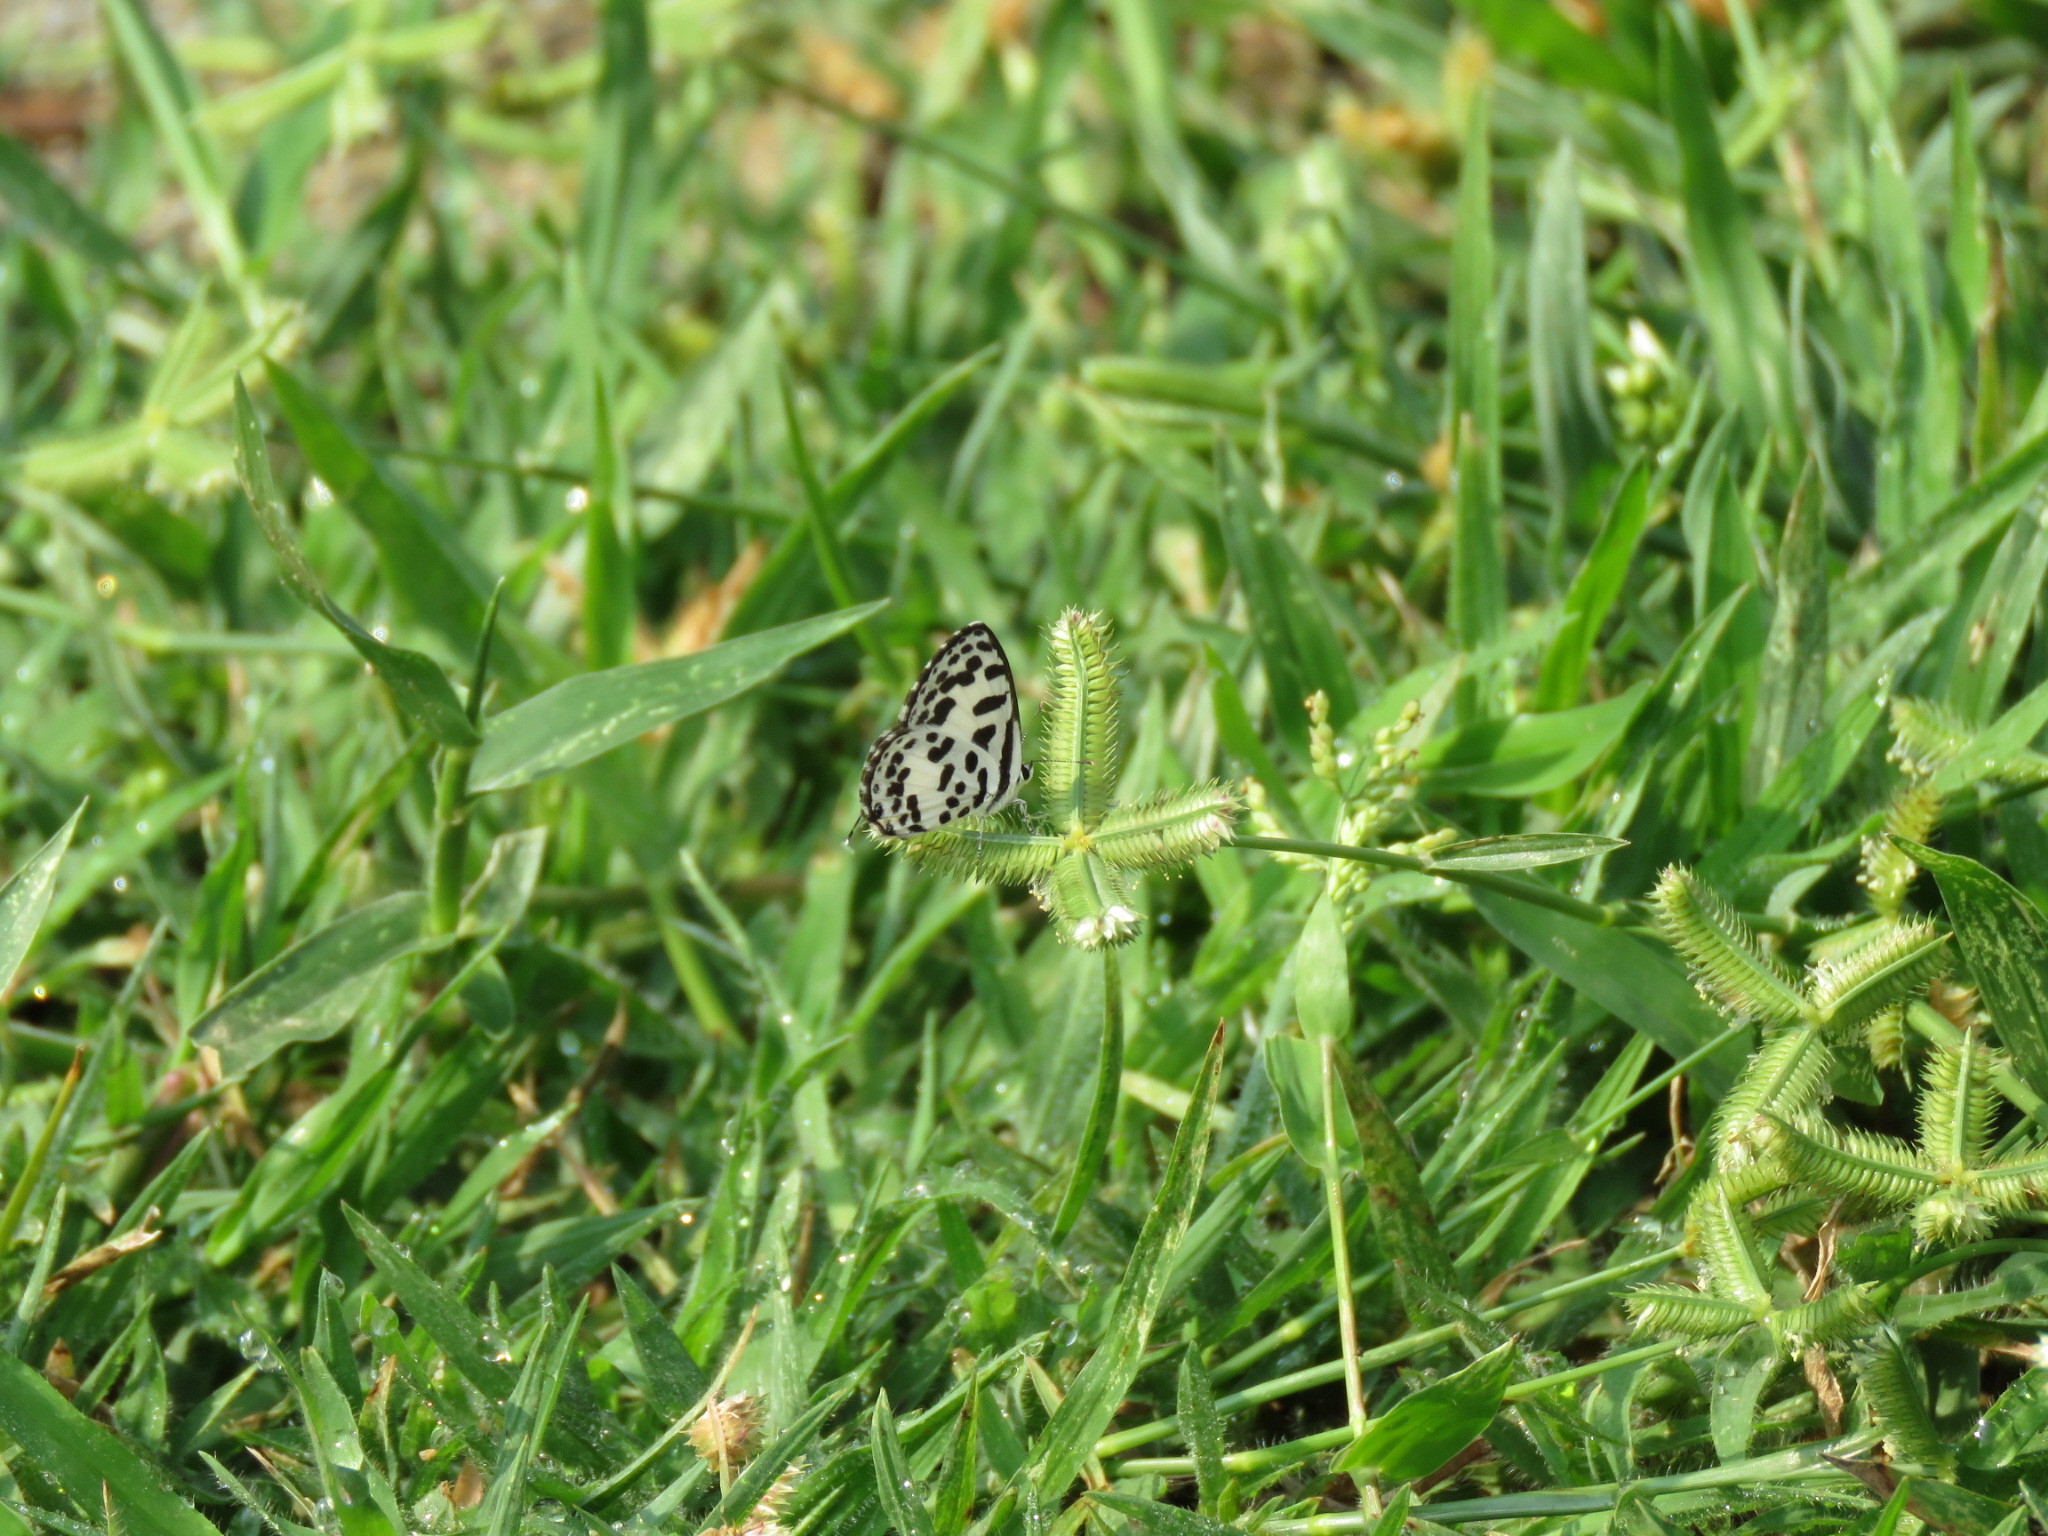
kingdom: Animalia
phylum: Arthropoda
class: Insecta
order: Lepidoptera
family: Lycaenidae
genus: Castalius
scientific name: Castalius rosimon
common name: Common pierrot
